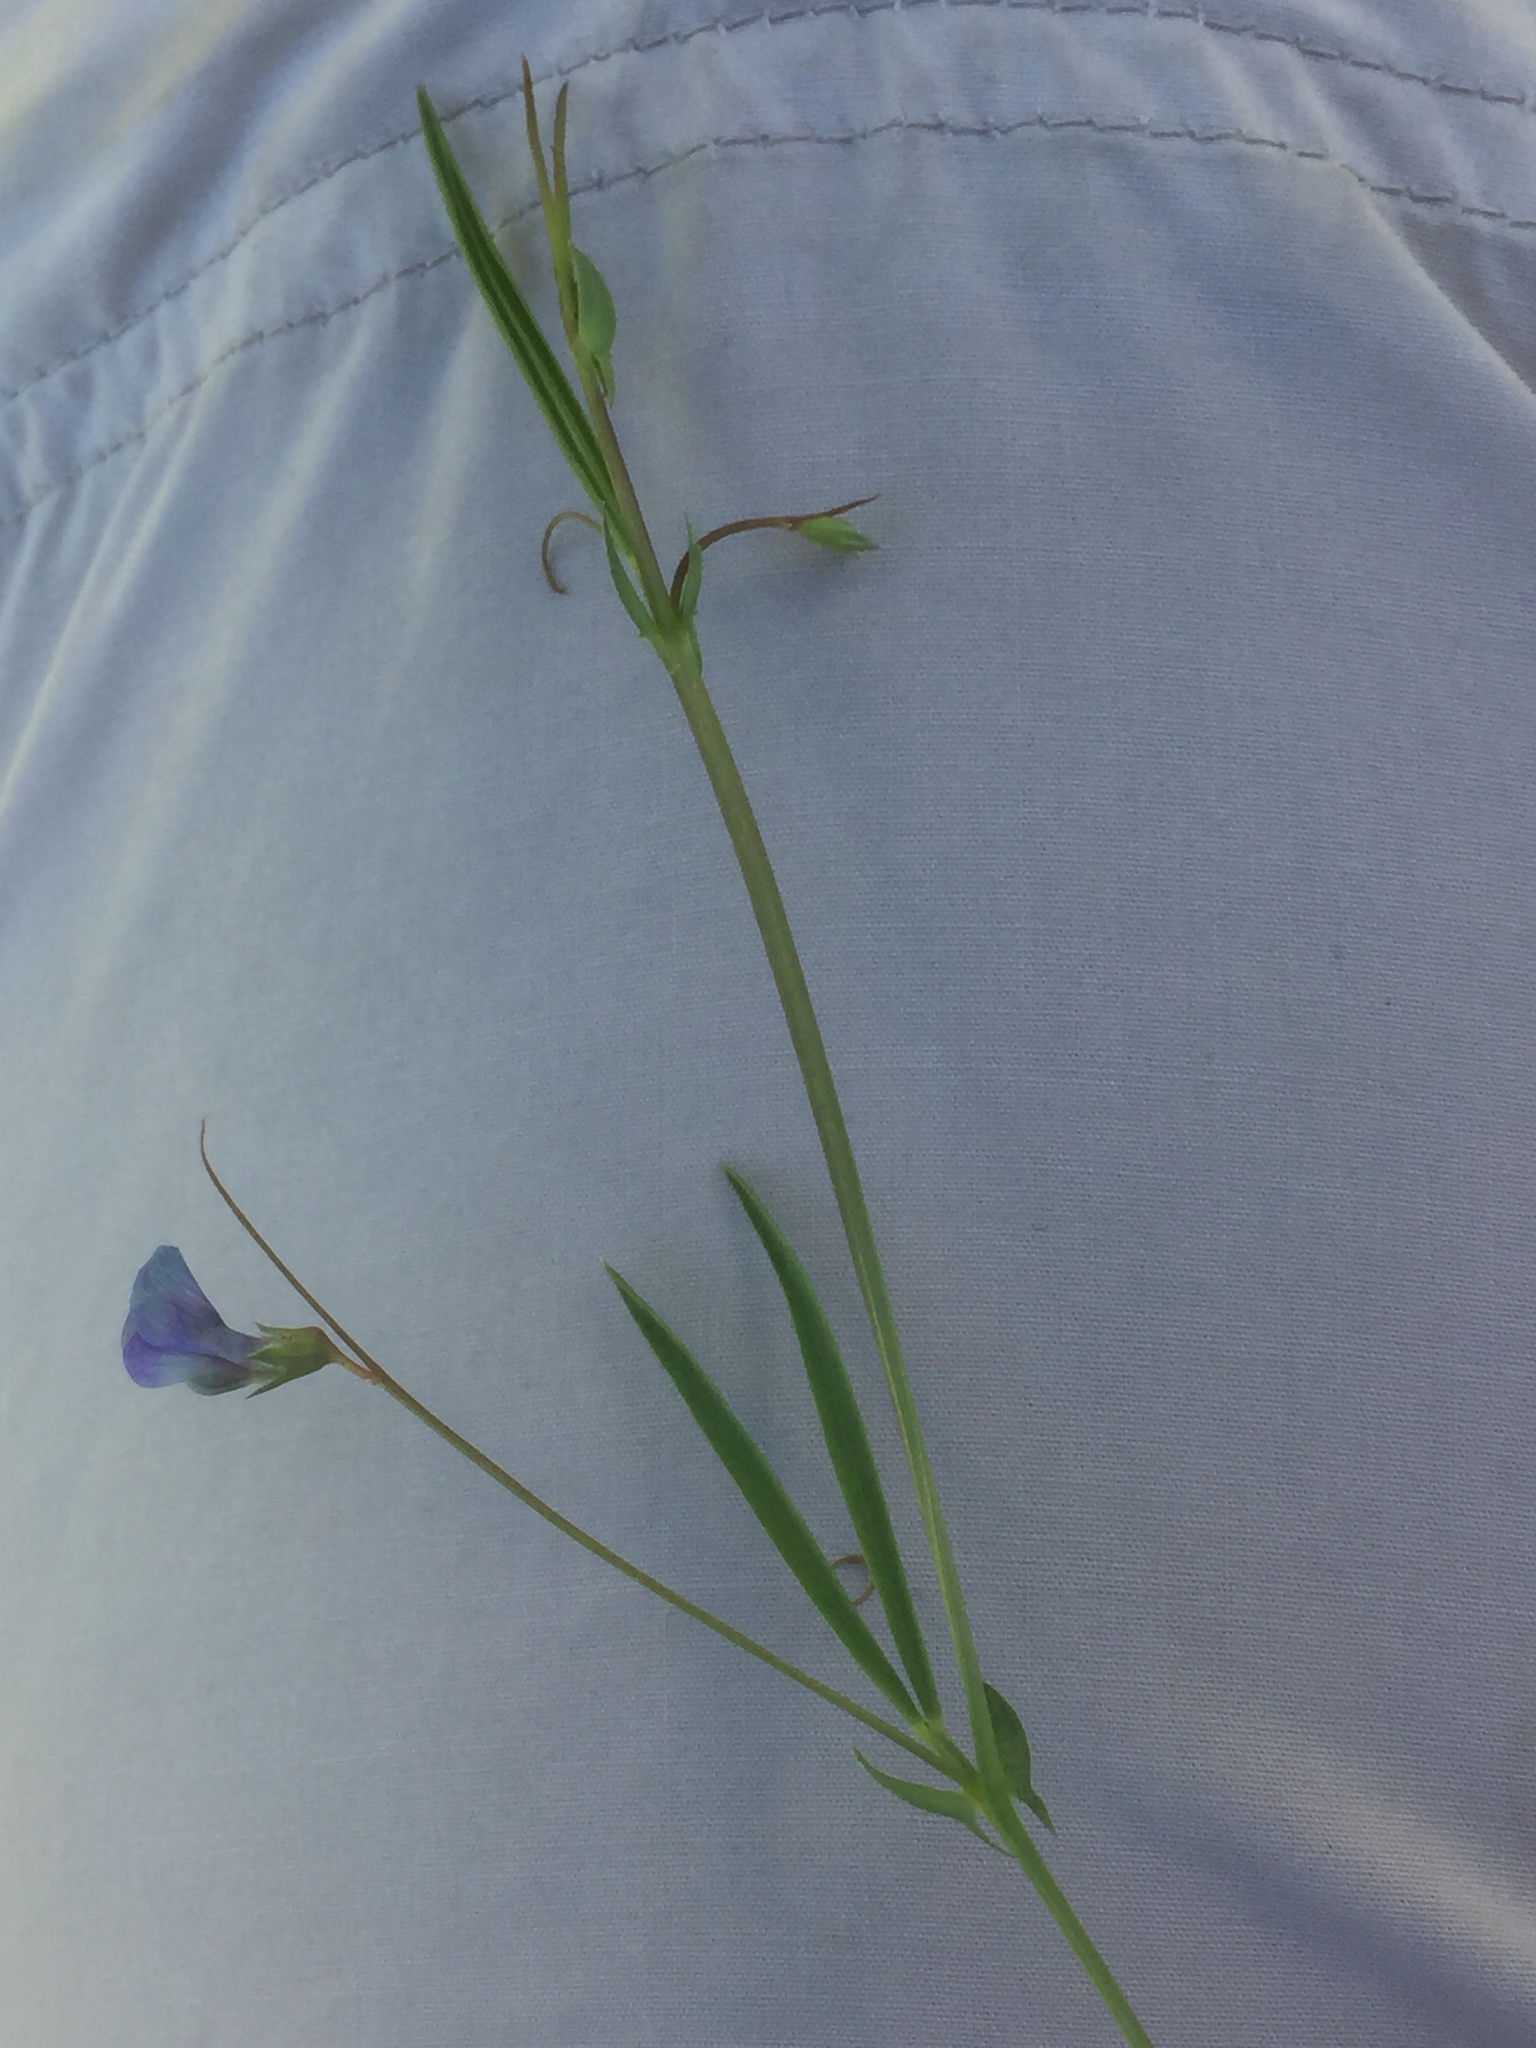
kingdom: Plantae
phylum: Tracheophyta
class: Magnoliopsida
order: Fabales
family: Fabaceae
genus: Lathyrus
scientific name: Lathyrus angulatus
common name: Angular pea
